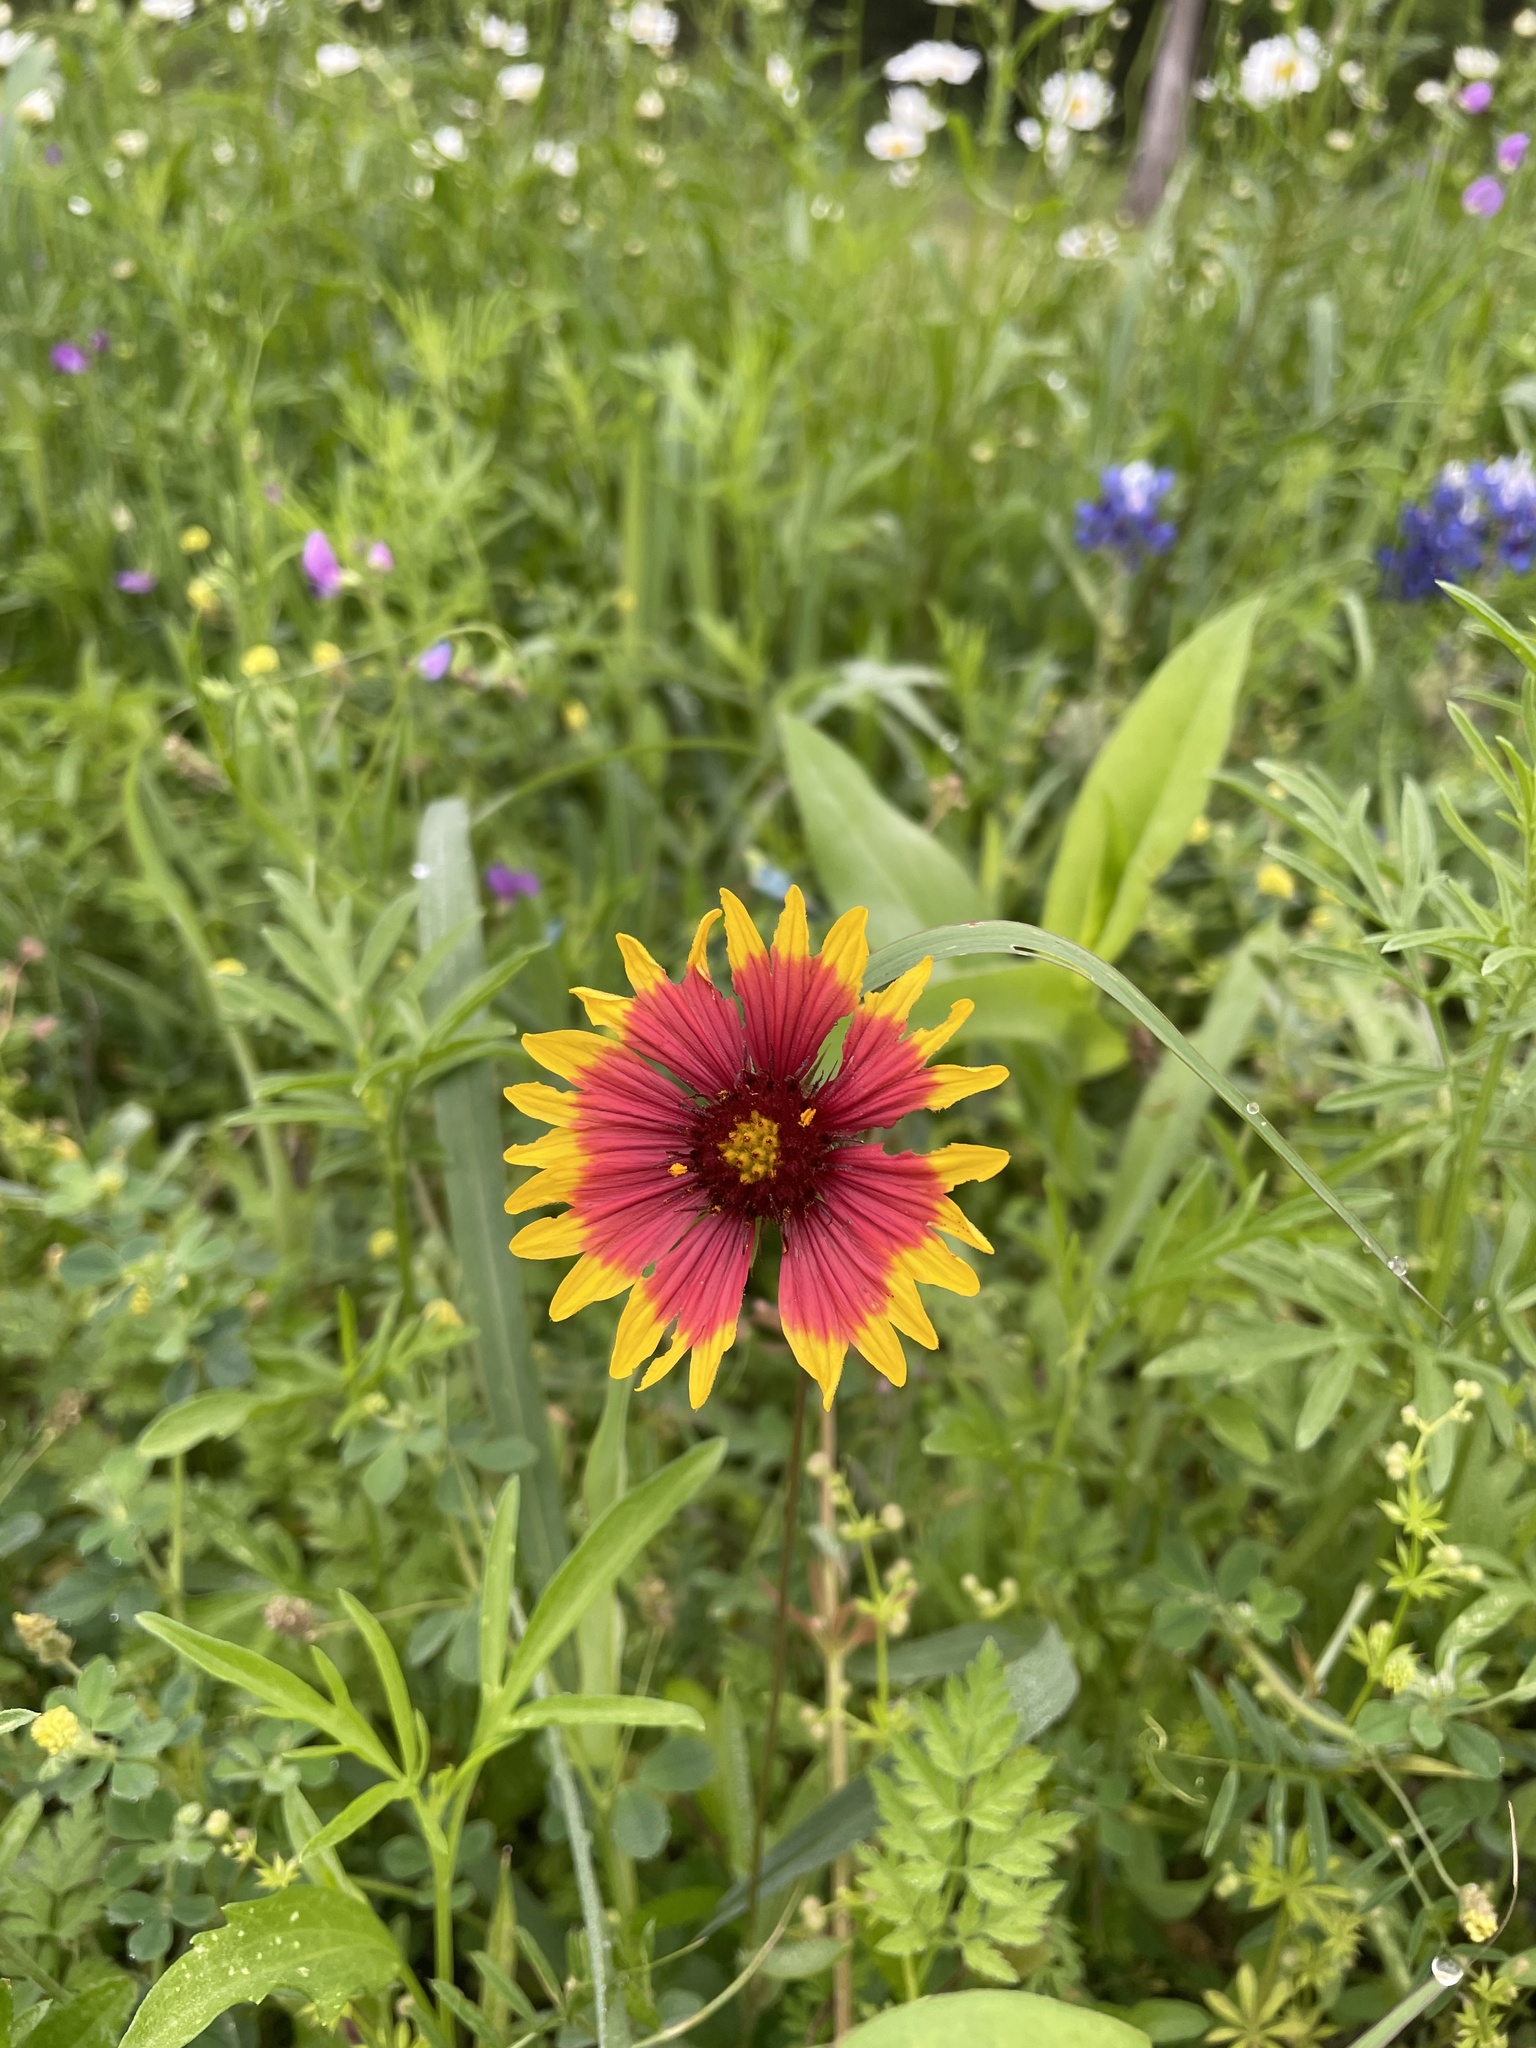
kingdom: Plantae
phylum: Tracheophyta
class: Magnoliopsida
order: Asterales
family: Asteraceae
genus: Gaillardia
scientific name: Gaillardia pulchella
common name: Firewheel
